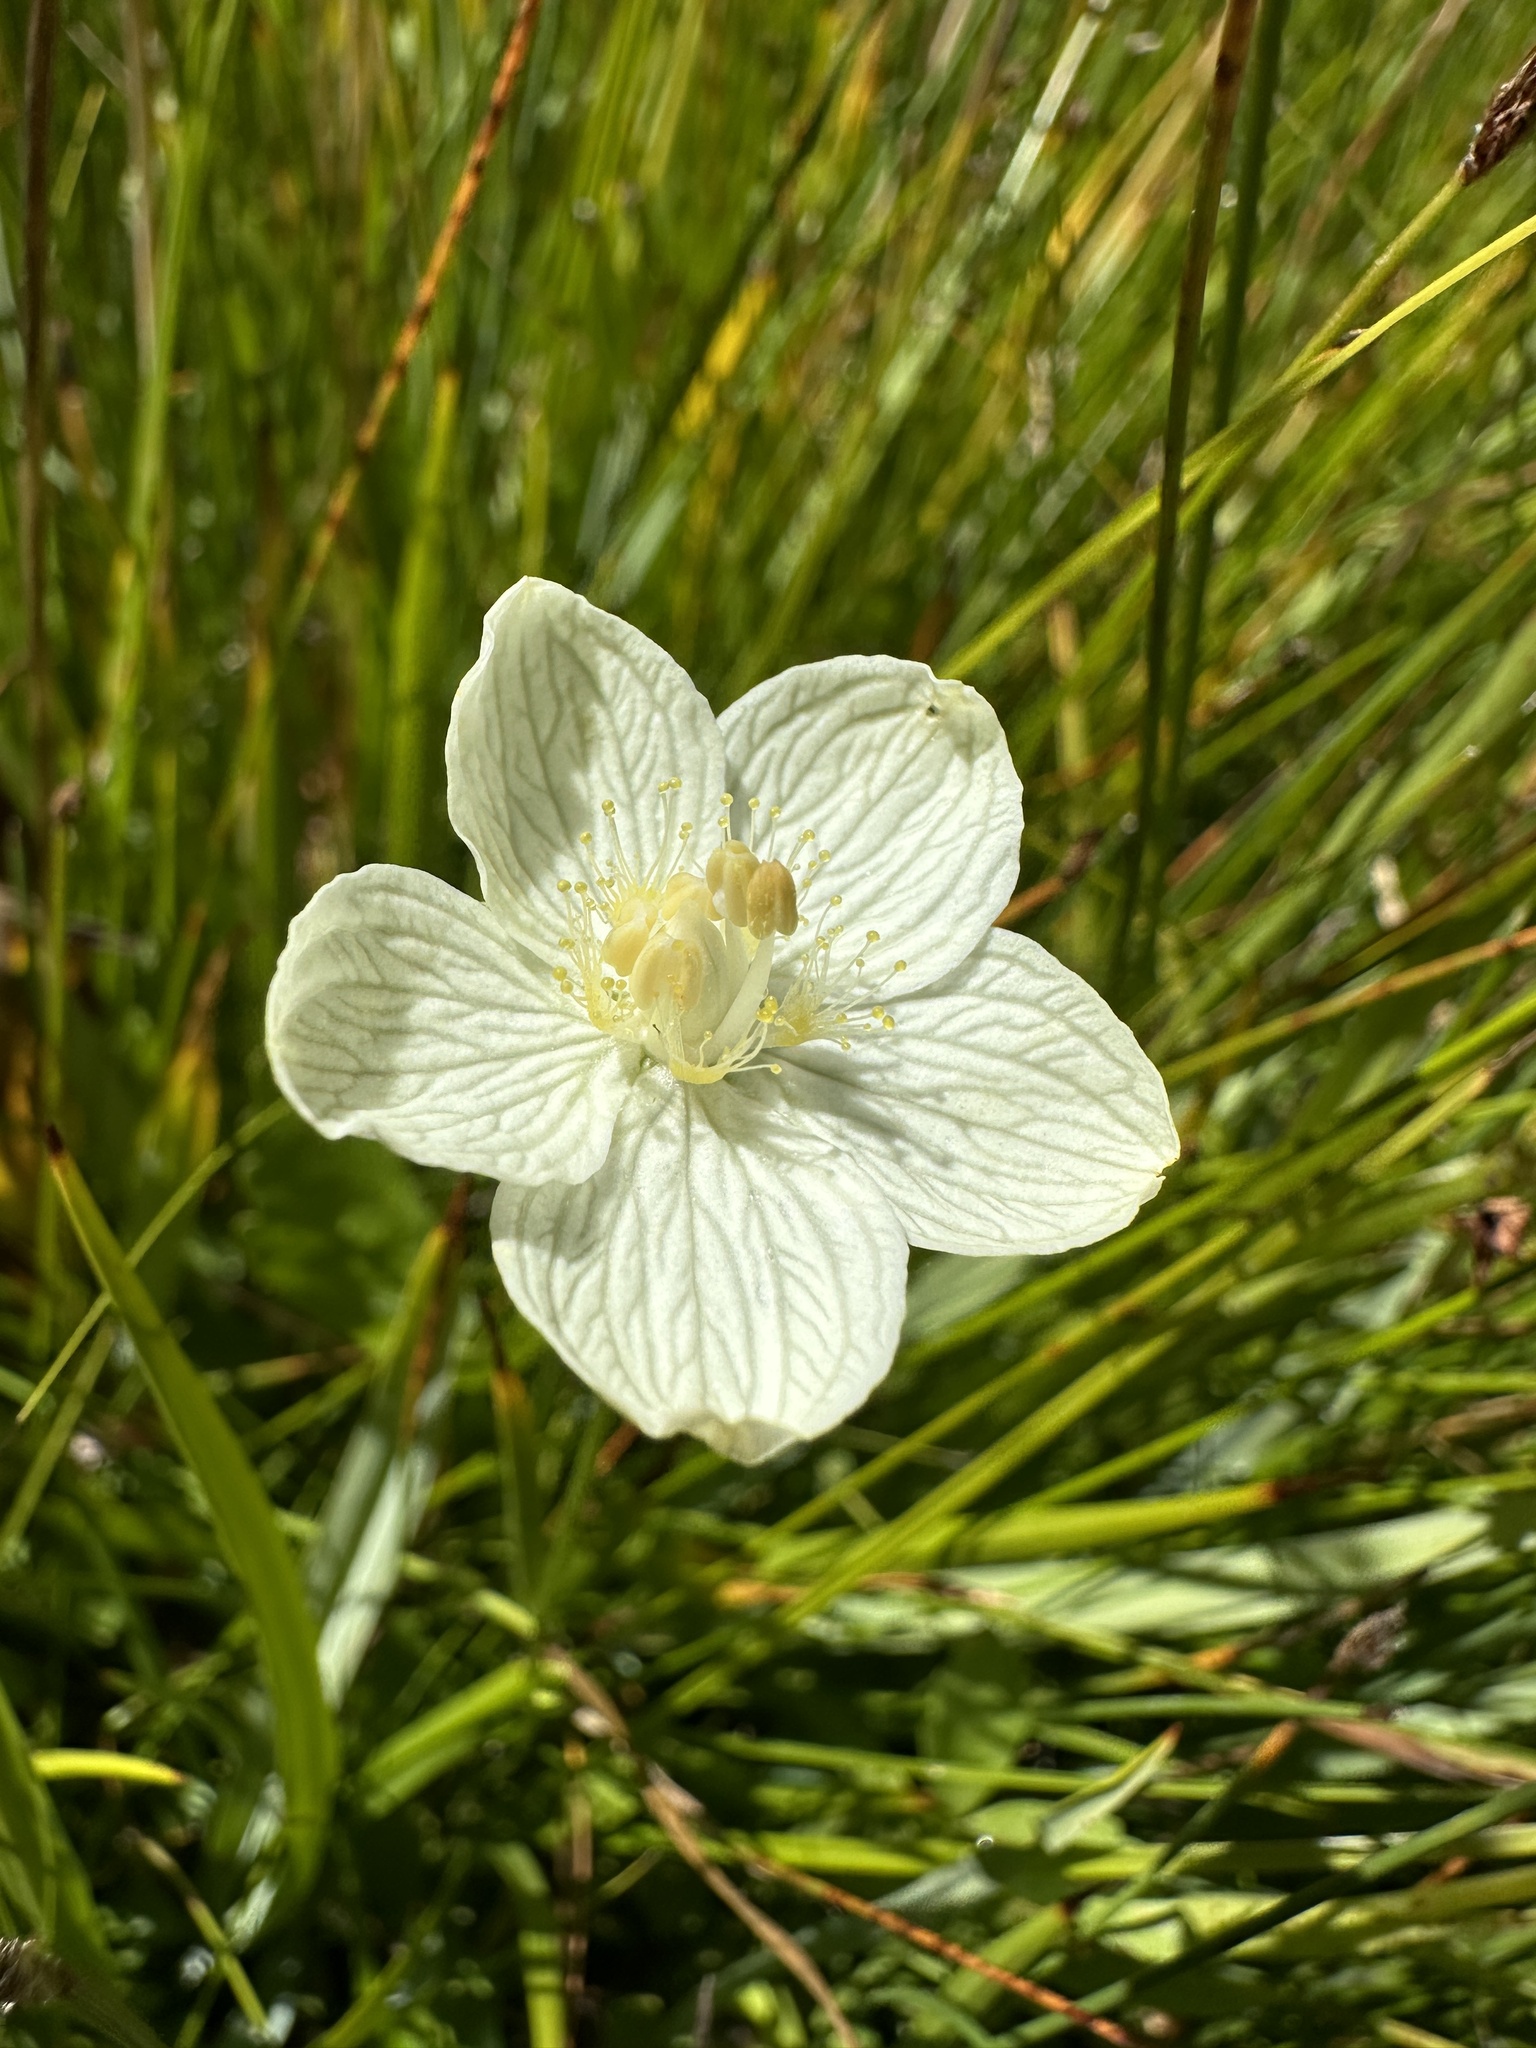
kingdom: Plantae
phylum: Tracheophyta
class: Magnoliopsida
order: Celastrales
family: Parnassiaceae
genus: Parnassia
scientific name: Parnassia palustris
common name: Grass-of-parnassus
